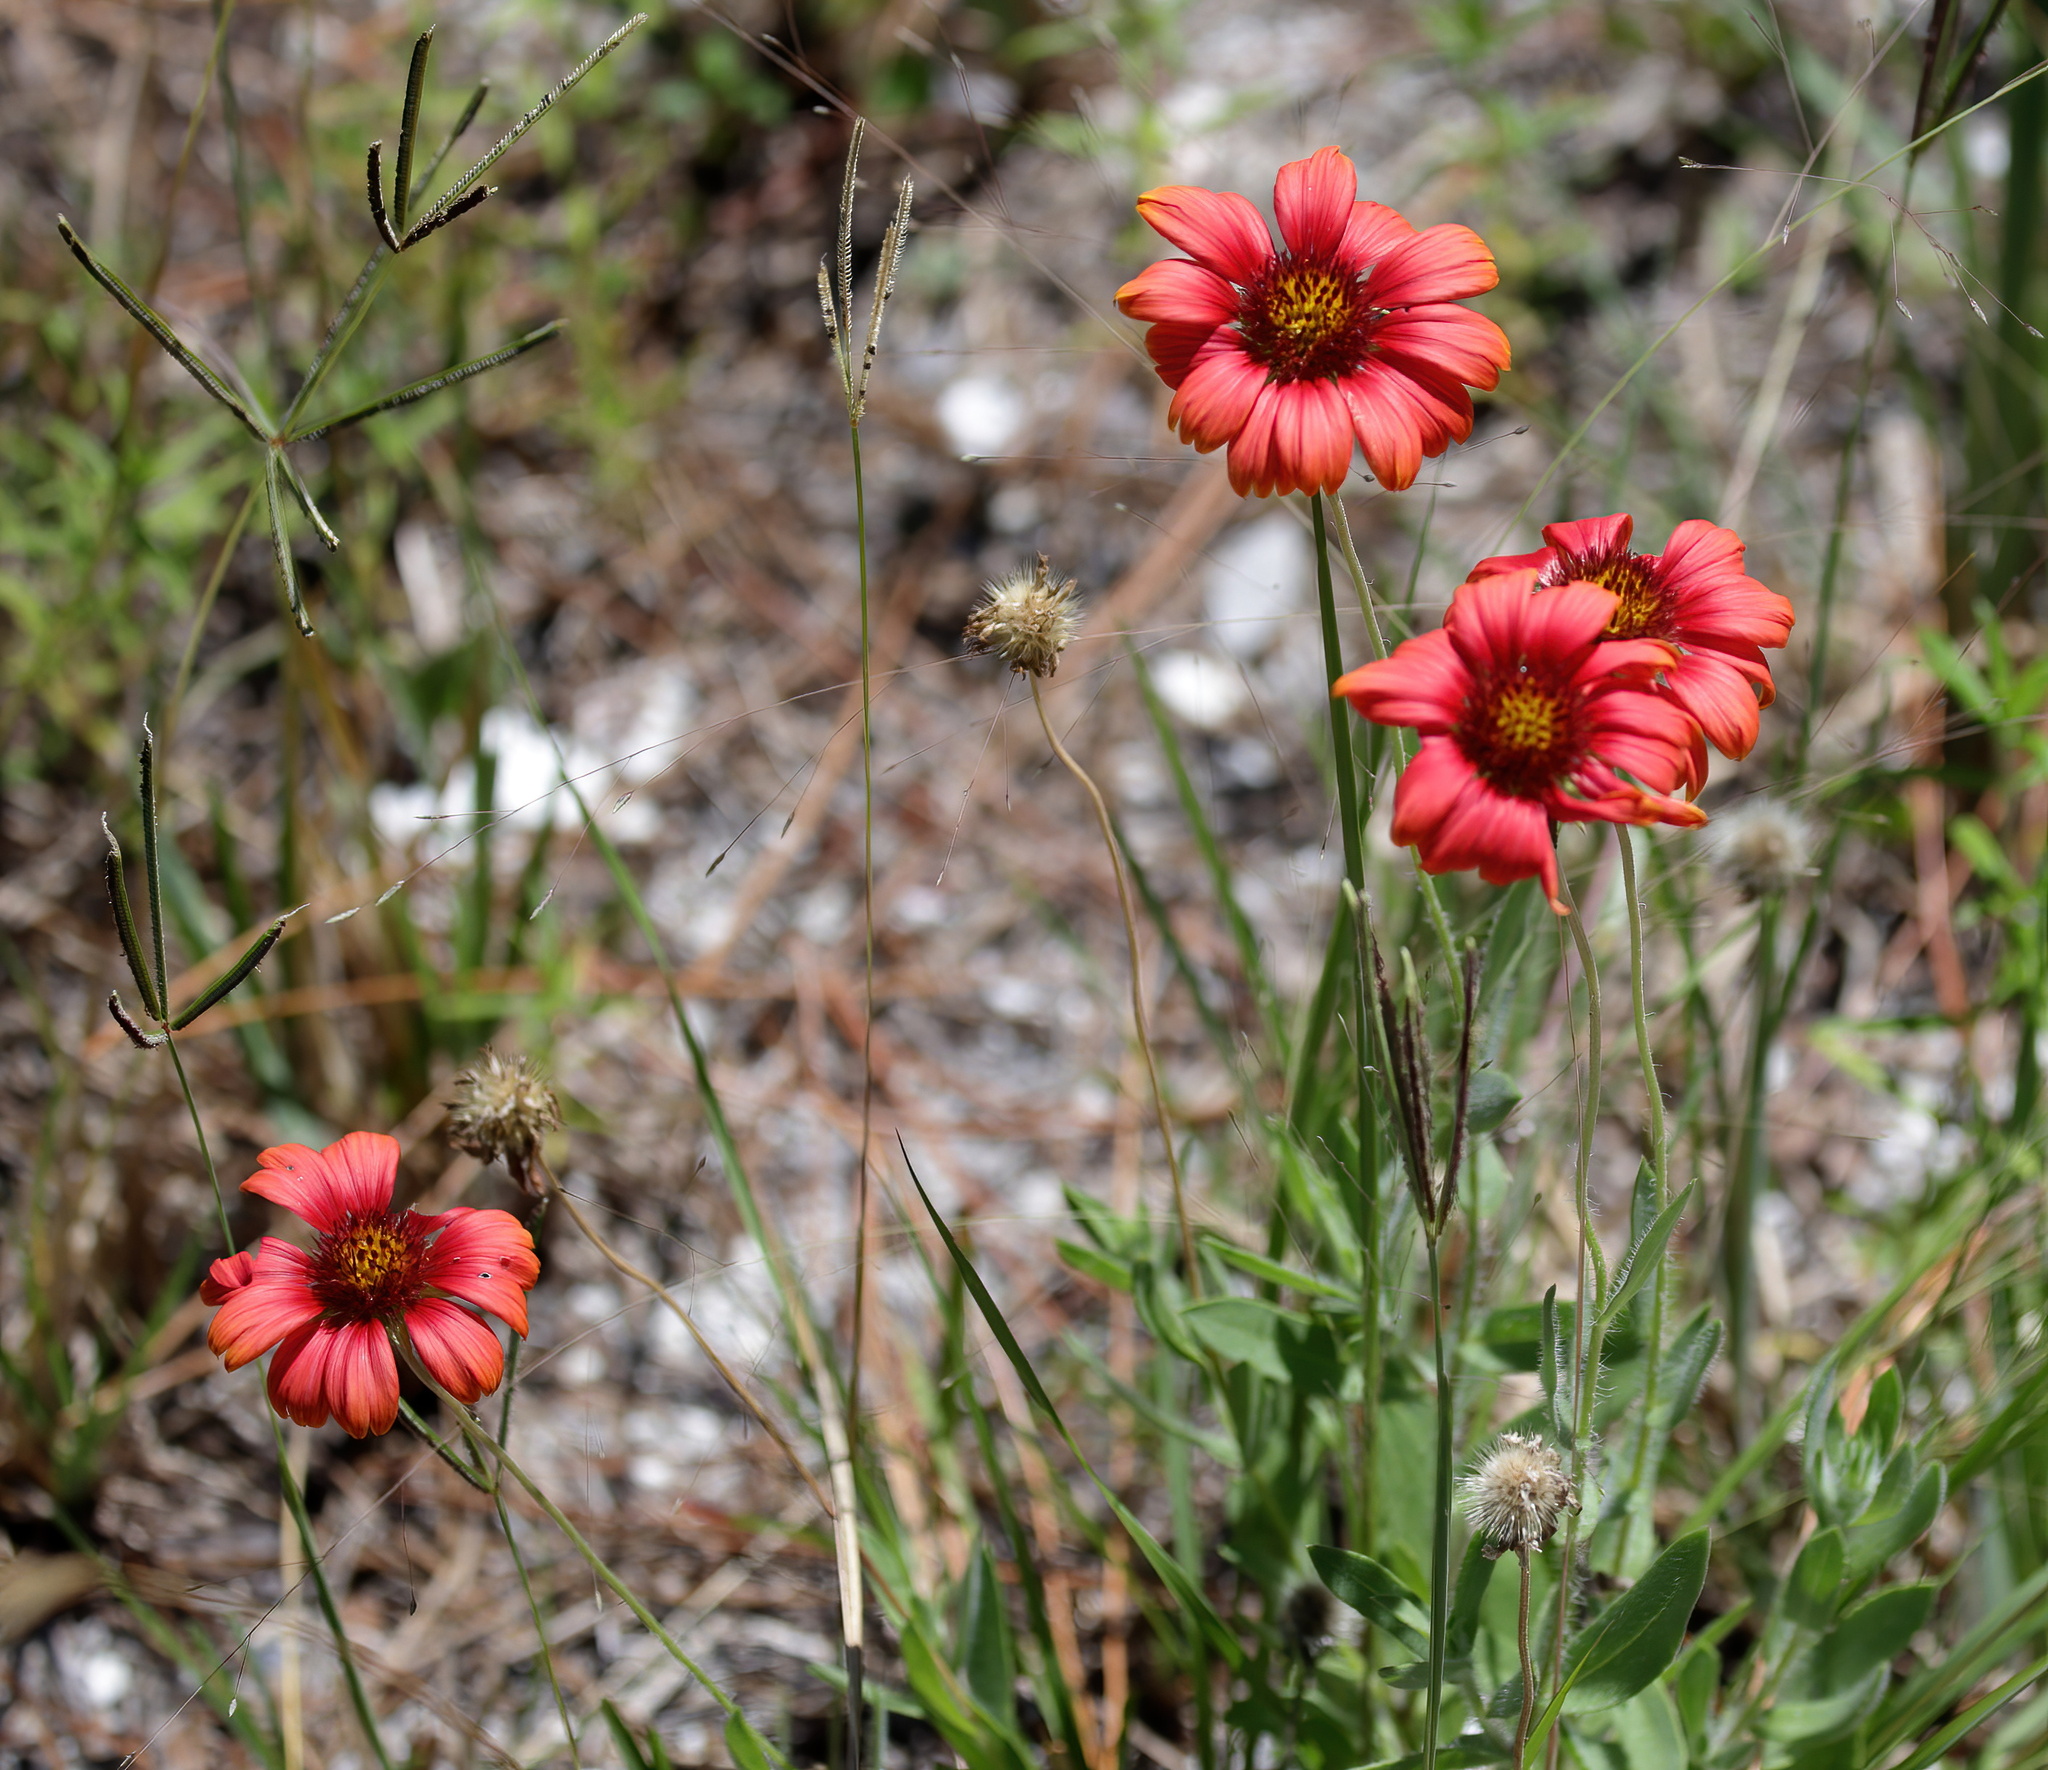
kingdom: Plantae
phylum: Tracheophyta
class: Magnoliopsida
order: Asterales
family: Asteraceae
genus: Gaillardia
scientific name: Gaillardia pulchella
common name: Firewheel
